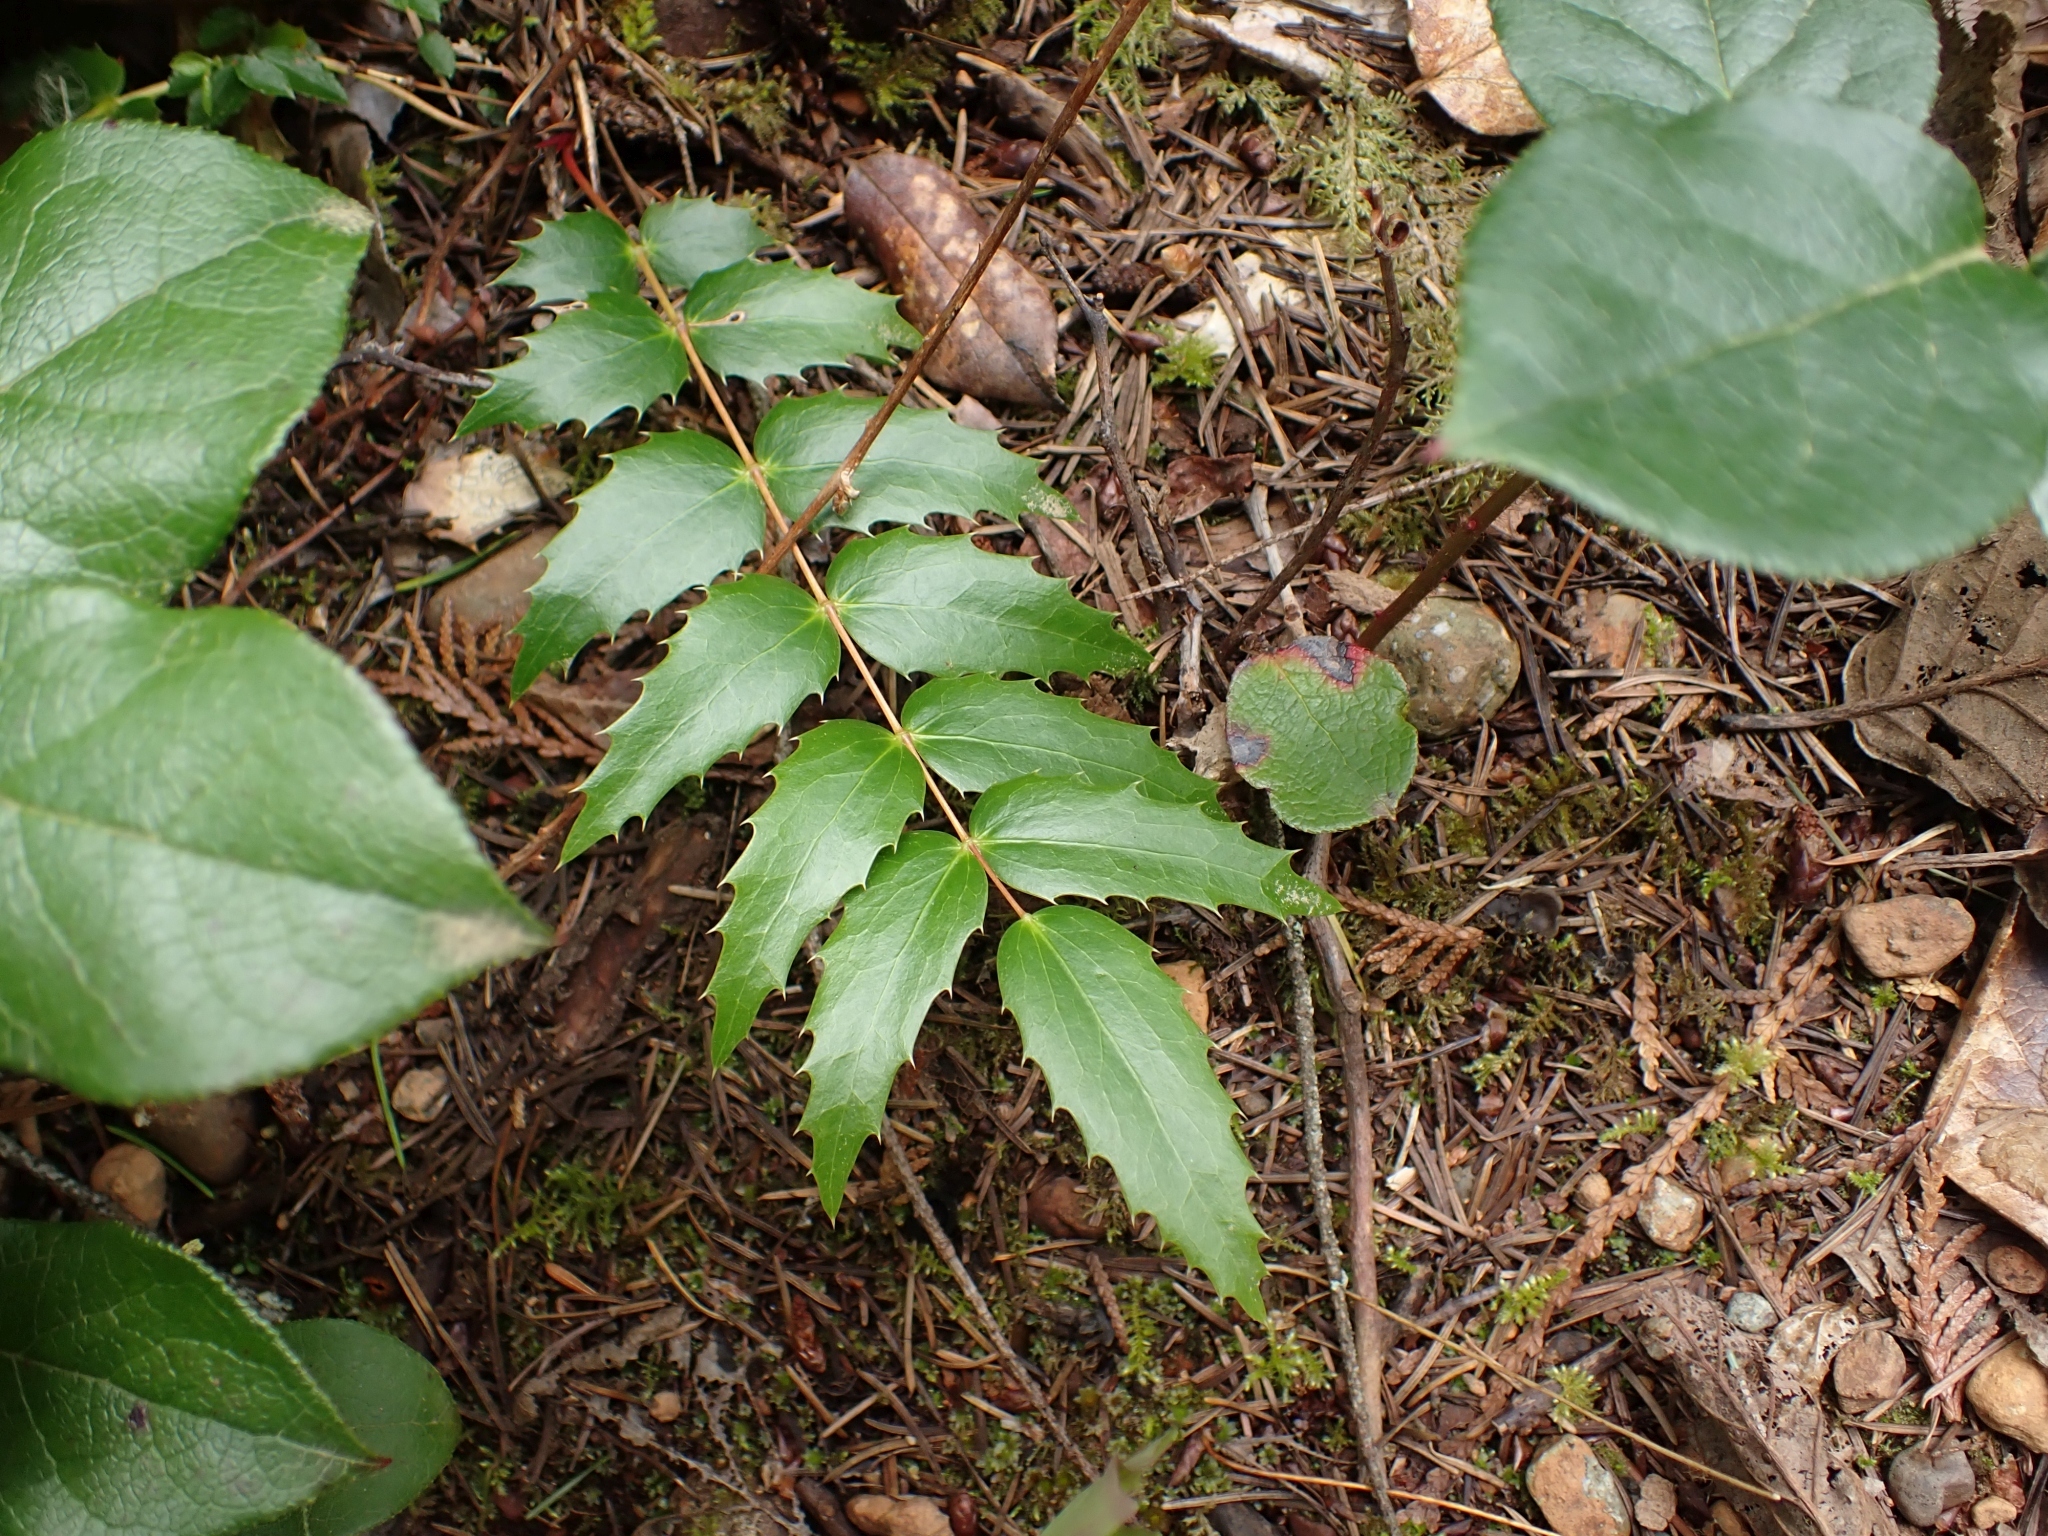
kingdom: Plantae
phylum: Tracheophyta
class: Magnoliopsida
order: Ranunculales
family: Berberidaceae
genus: Mahonia
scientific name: Mahonia nervosa
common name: Cascade oregon-grape
